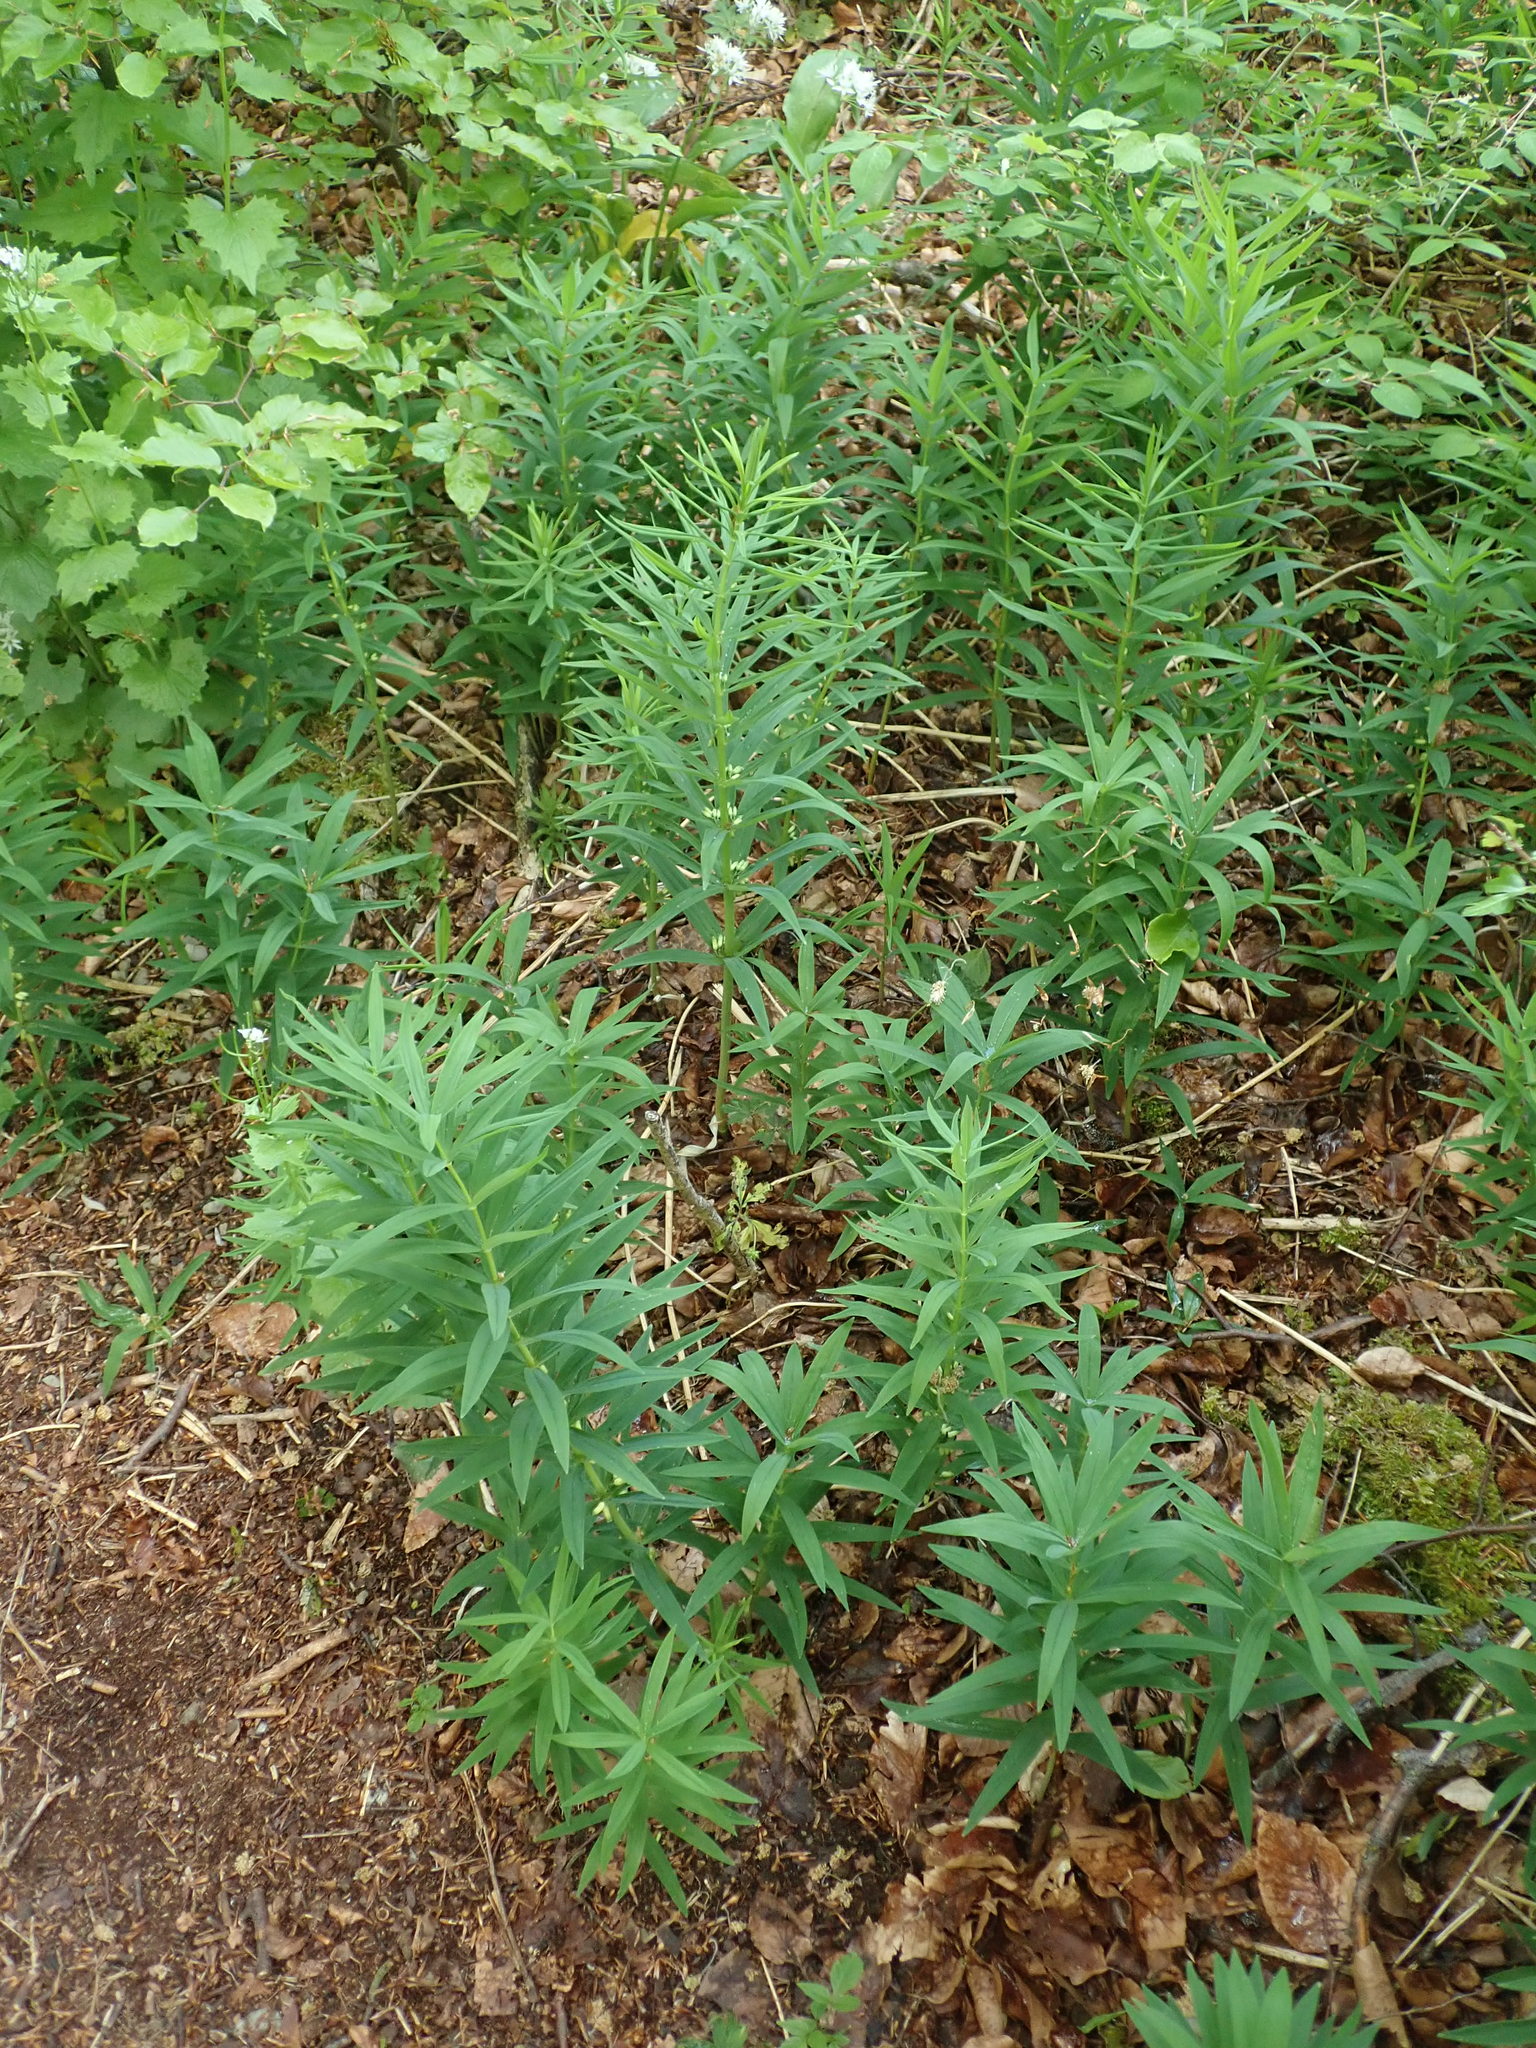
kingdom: Plantae
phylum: Tracheophyta
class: Liliopsida
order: Asparagales
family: Asparagaceae
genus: Polygonatum
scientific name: Polygonatum verticillatum
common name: Whorled solomon's-seal
